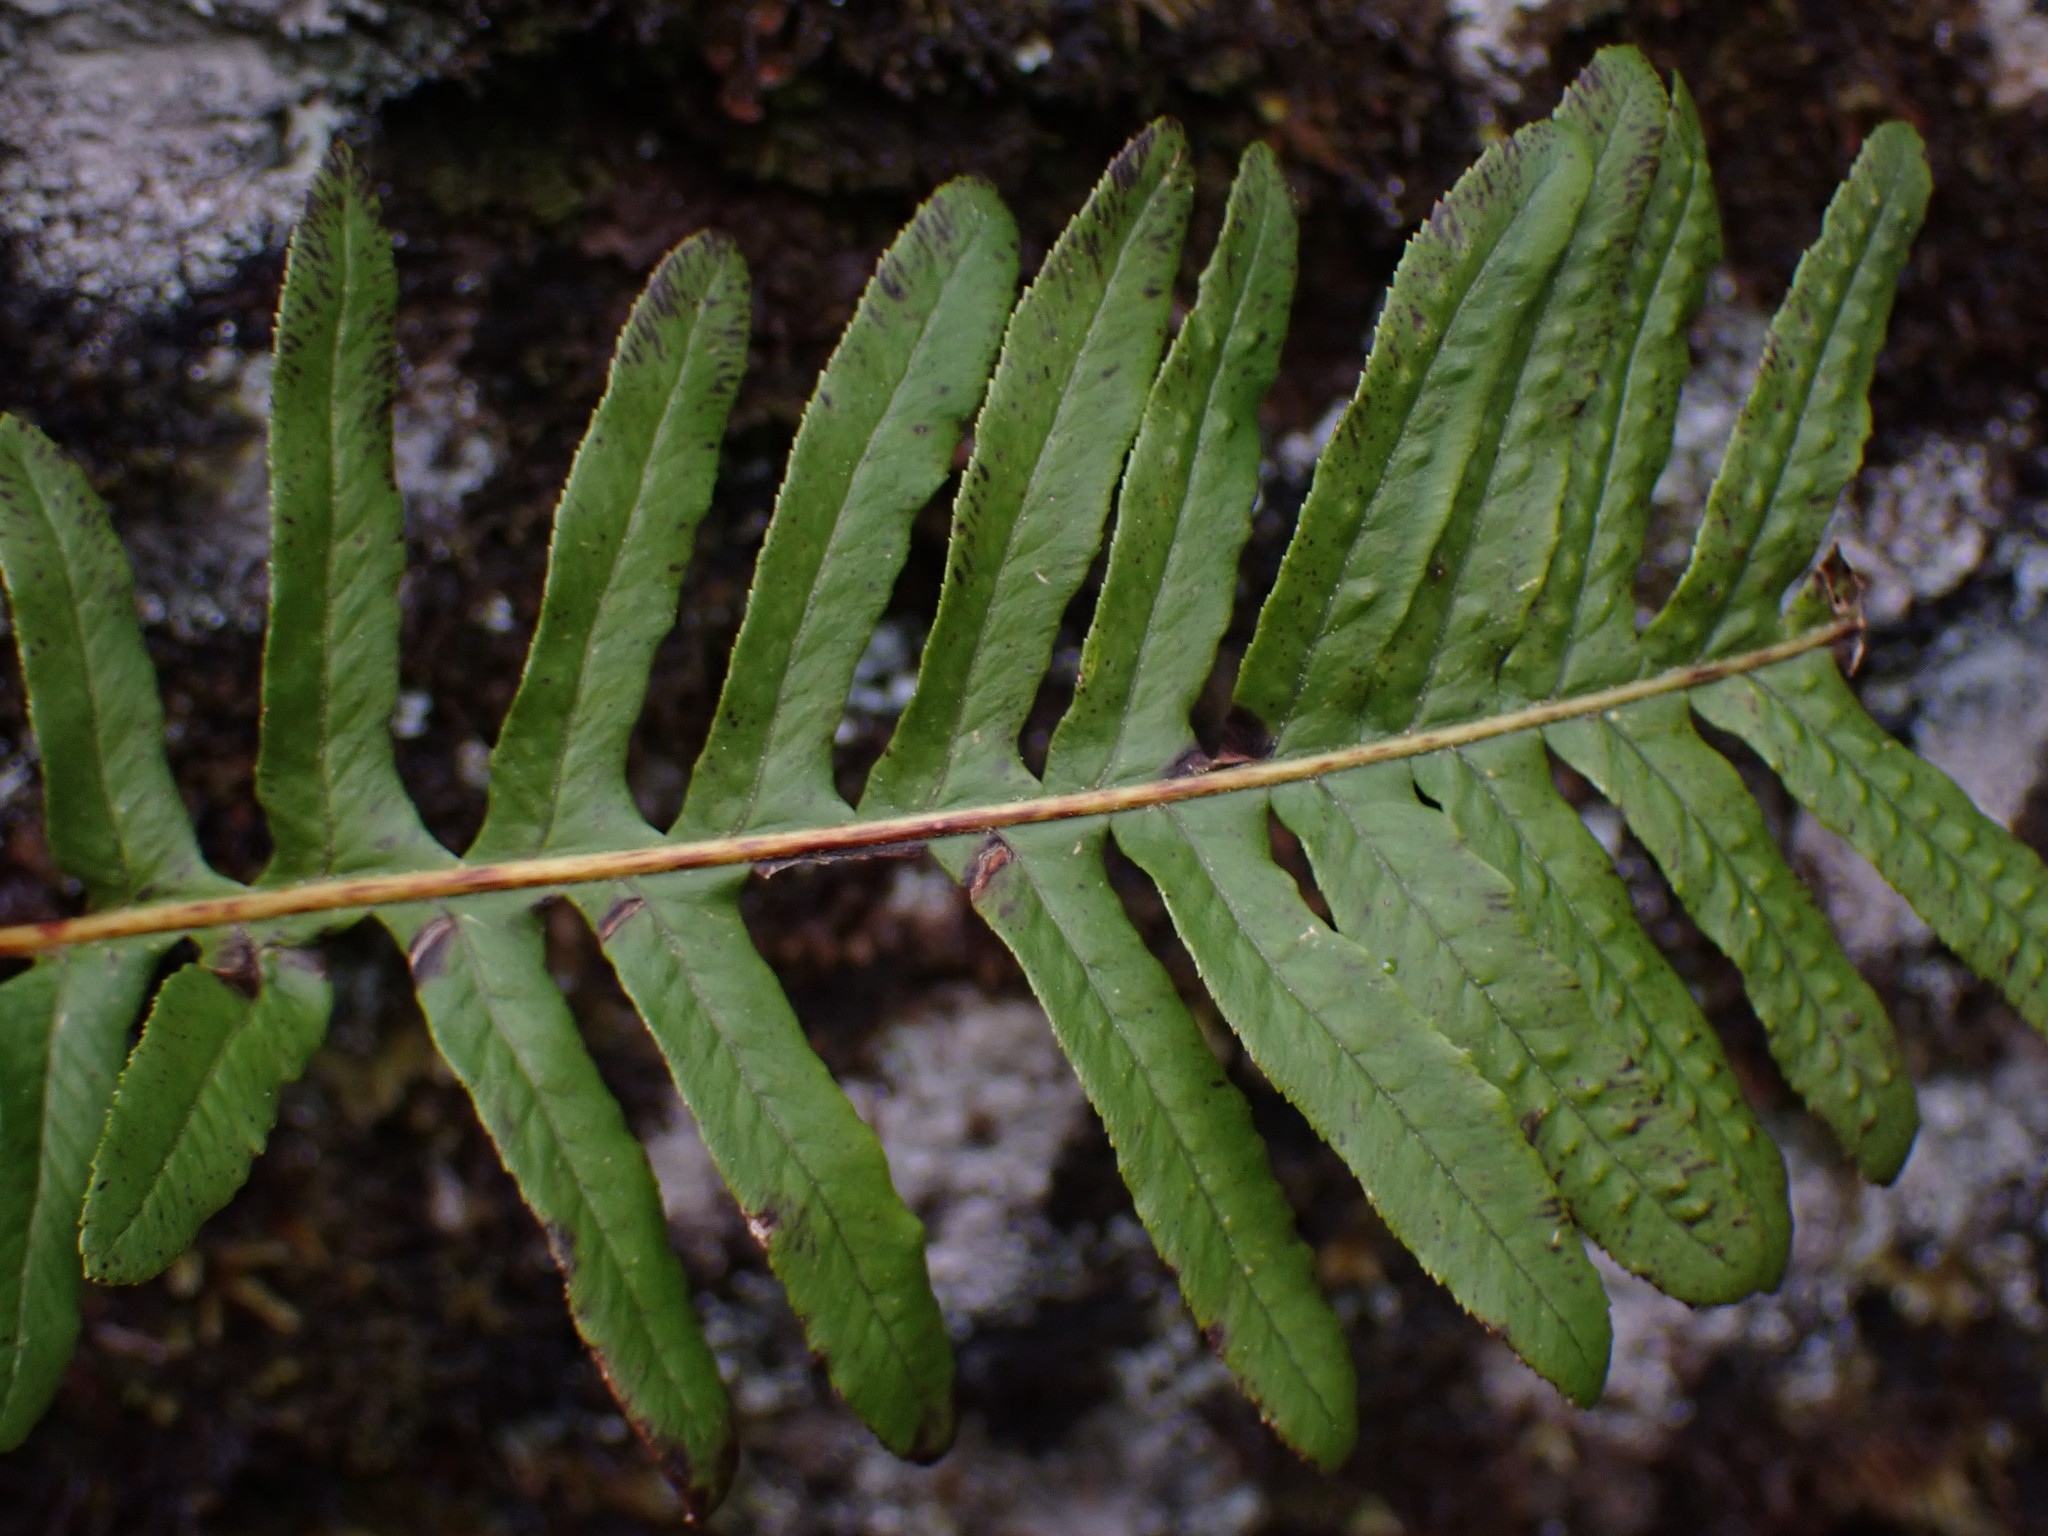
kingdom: Plantae
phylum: Tracheophyta
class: Polypodiopsida
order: Polypodiales
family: Polypodiaceae
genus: Polypodium
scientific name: Polypodium glycyrrhiza
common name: Licorice fern
